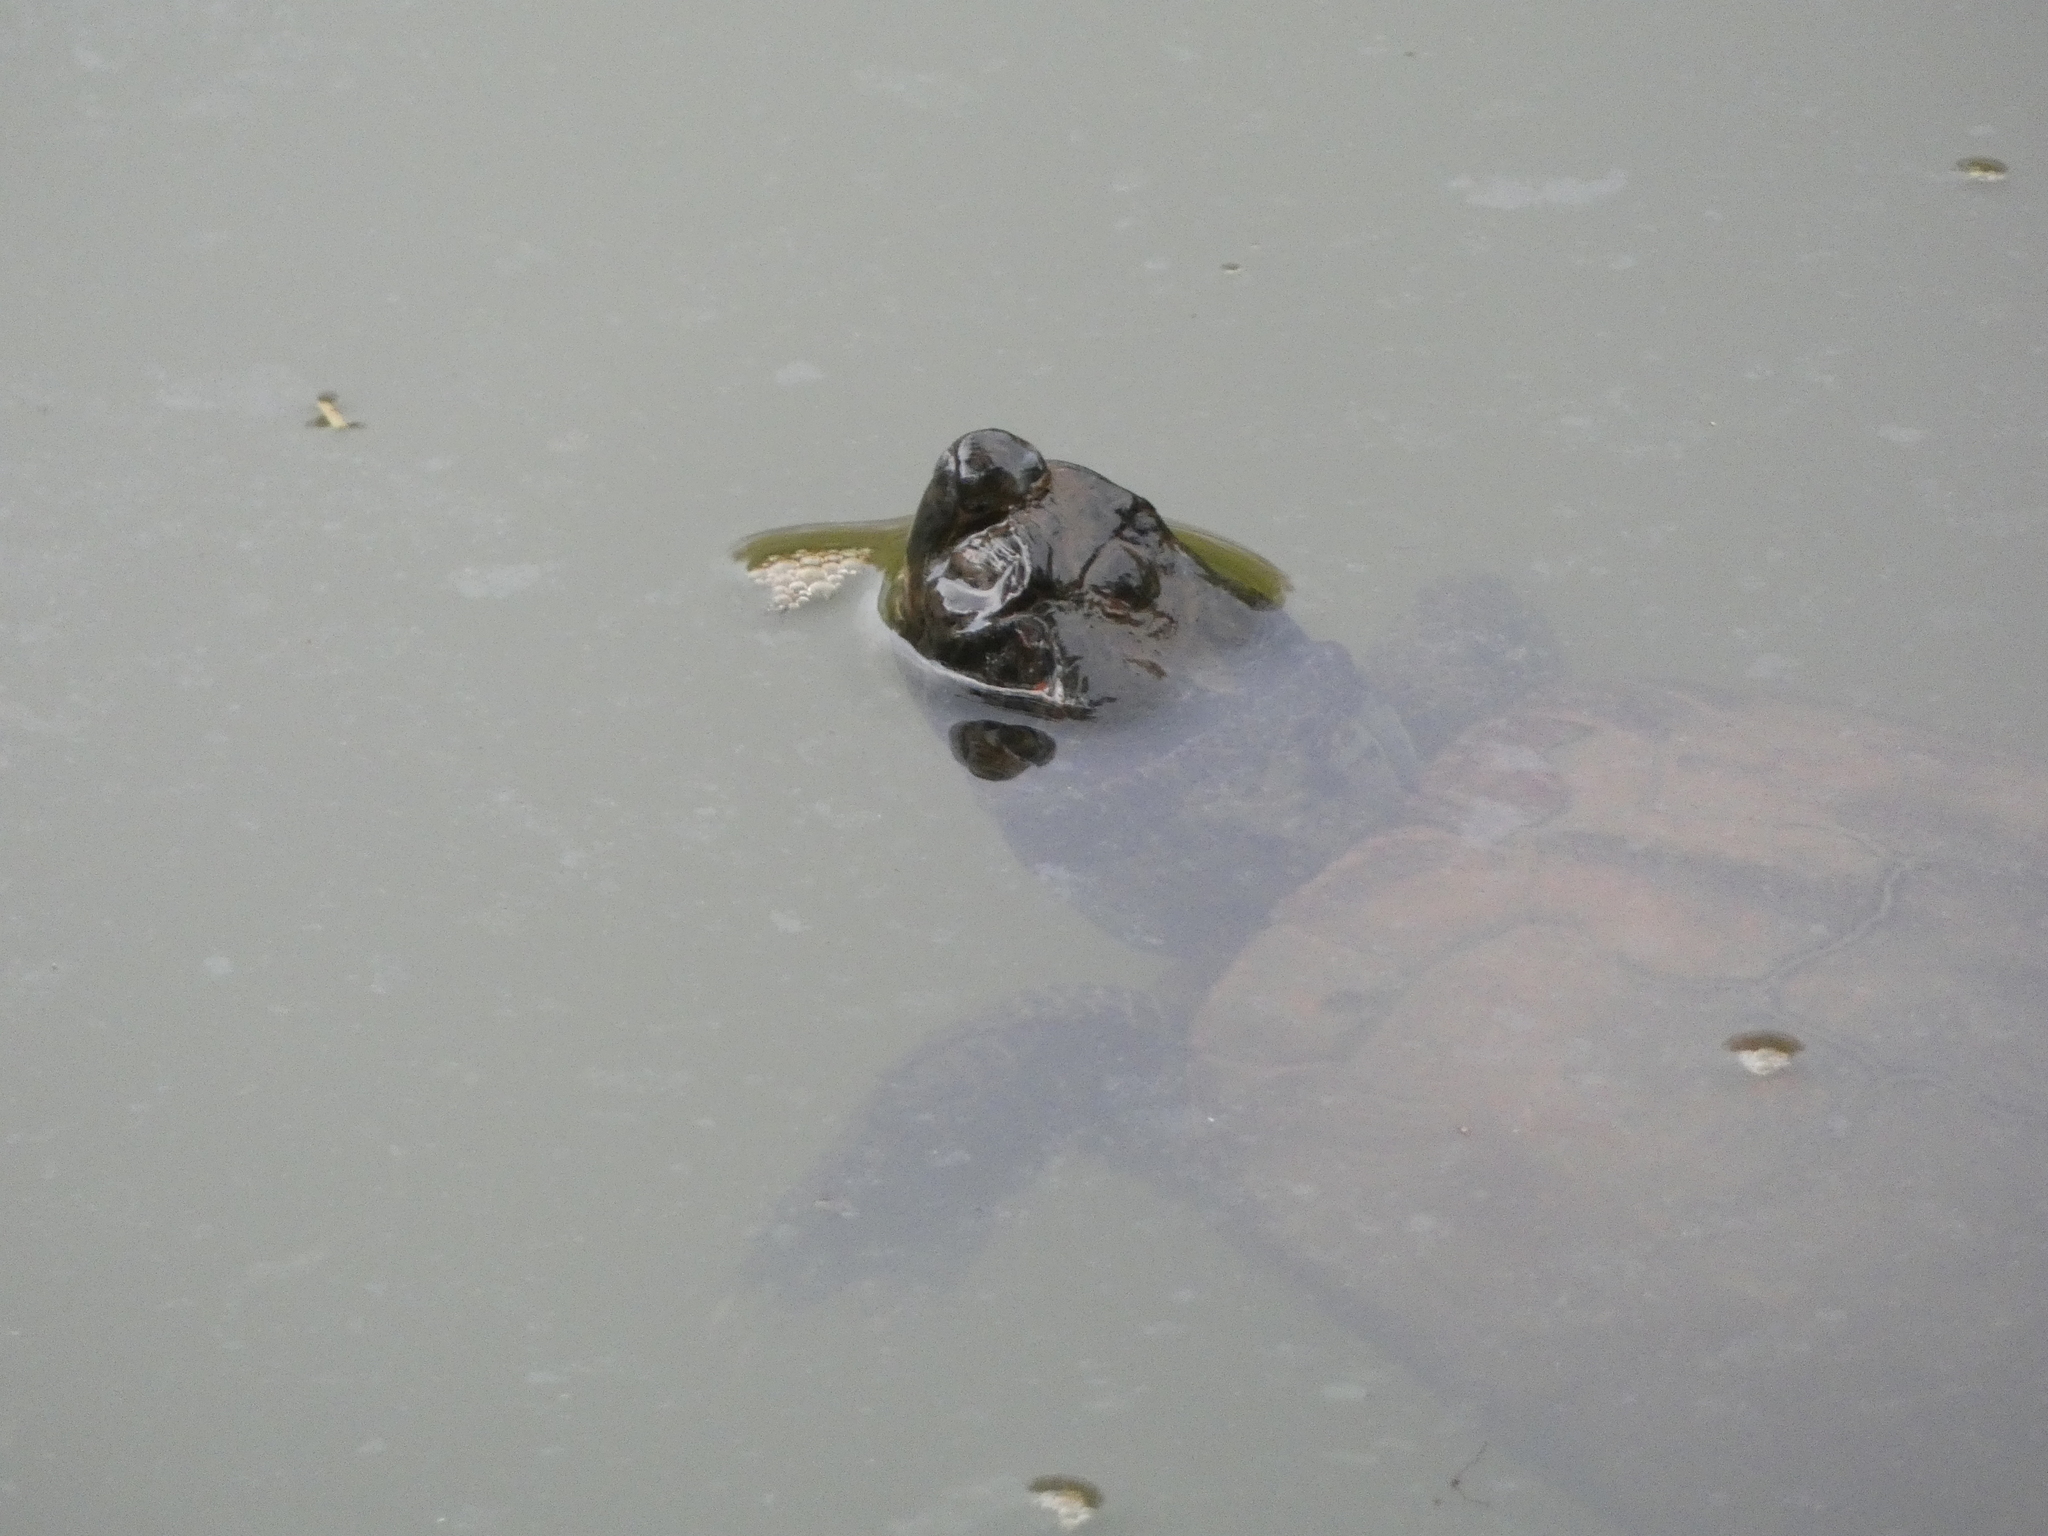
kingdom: Animalia
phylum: Chordata
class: Testudines
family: Emydidae
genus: Trachemys
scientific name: Trachemys scripta
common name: Slider
